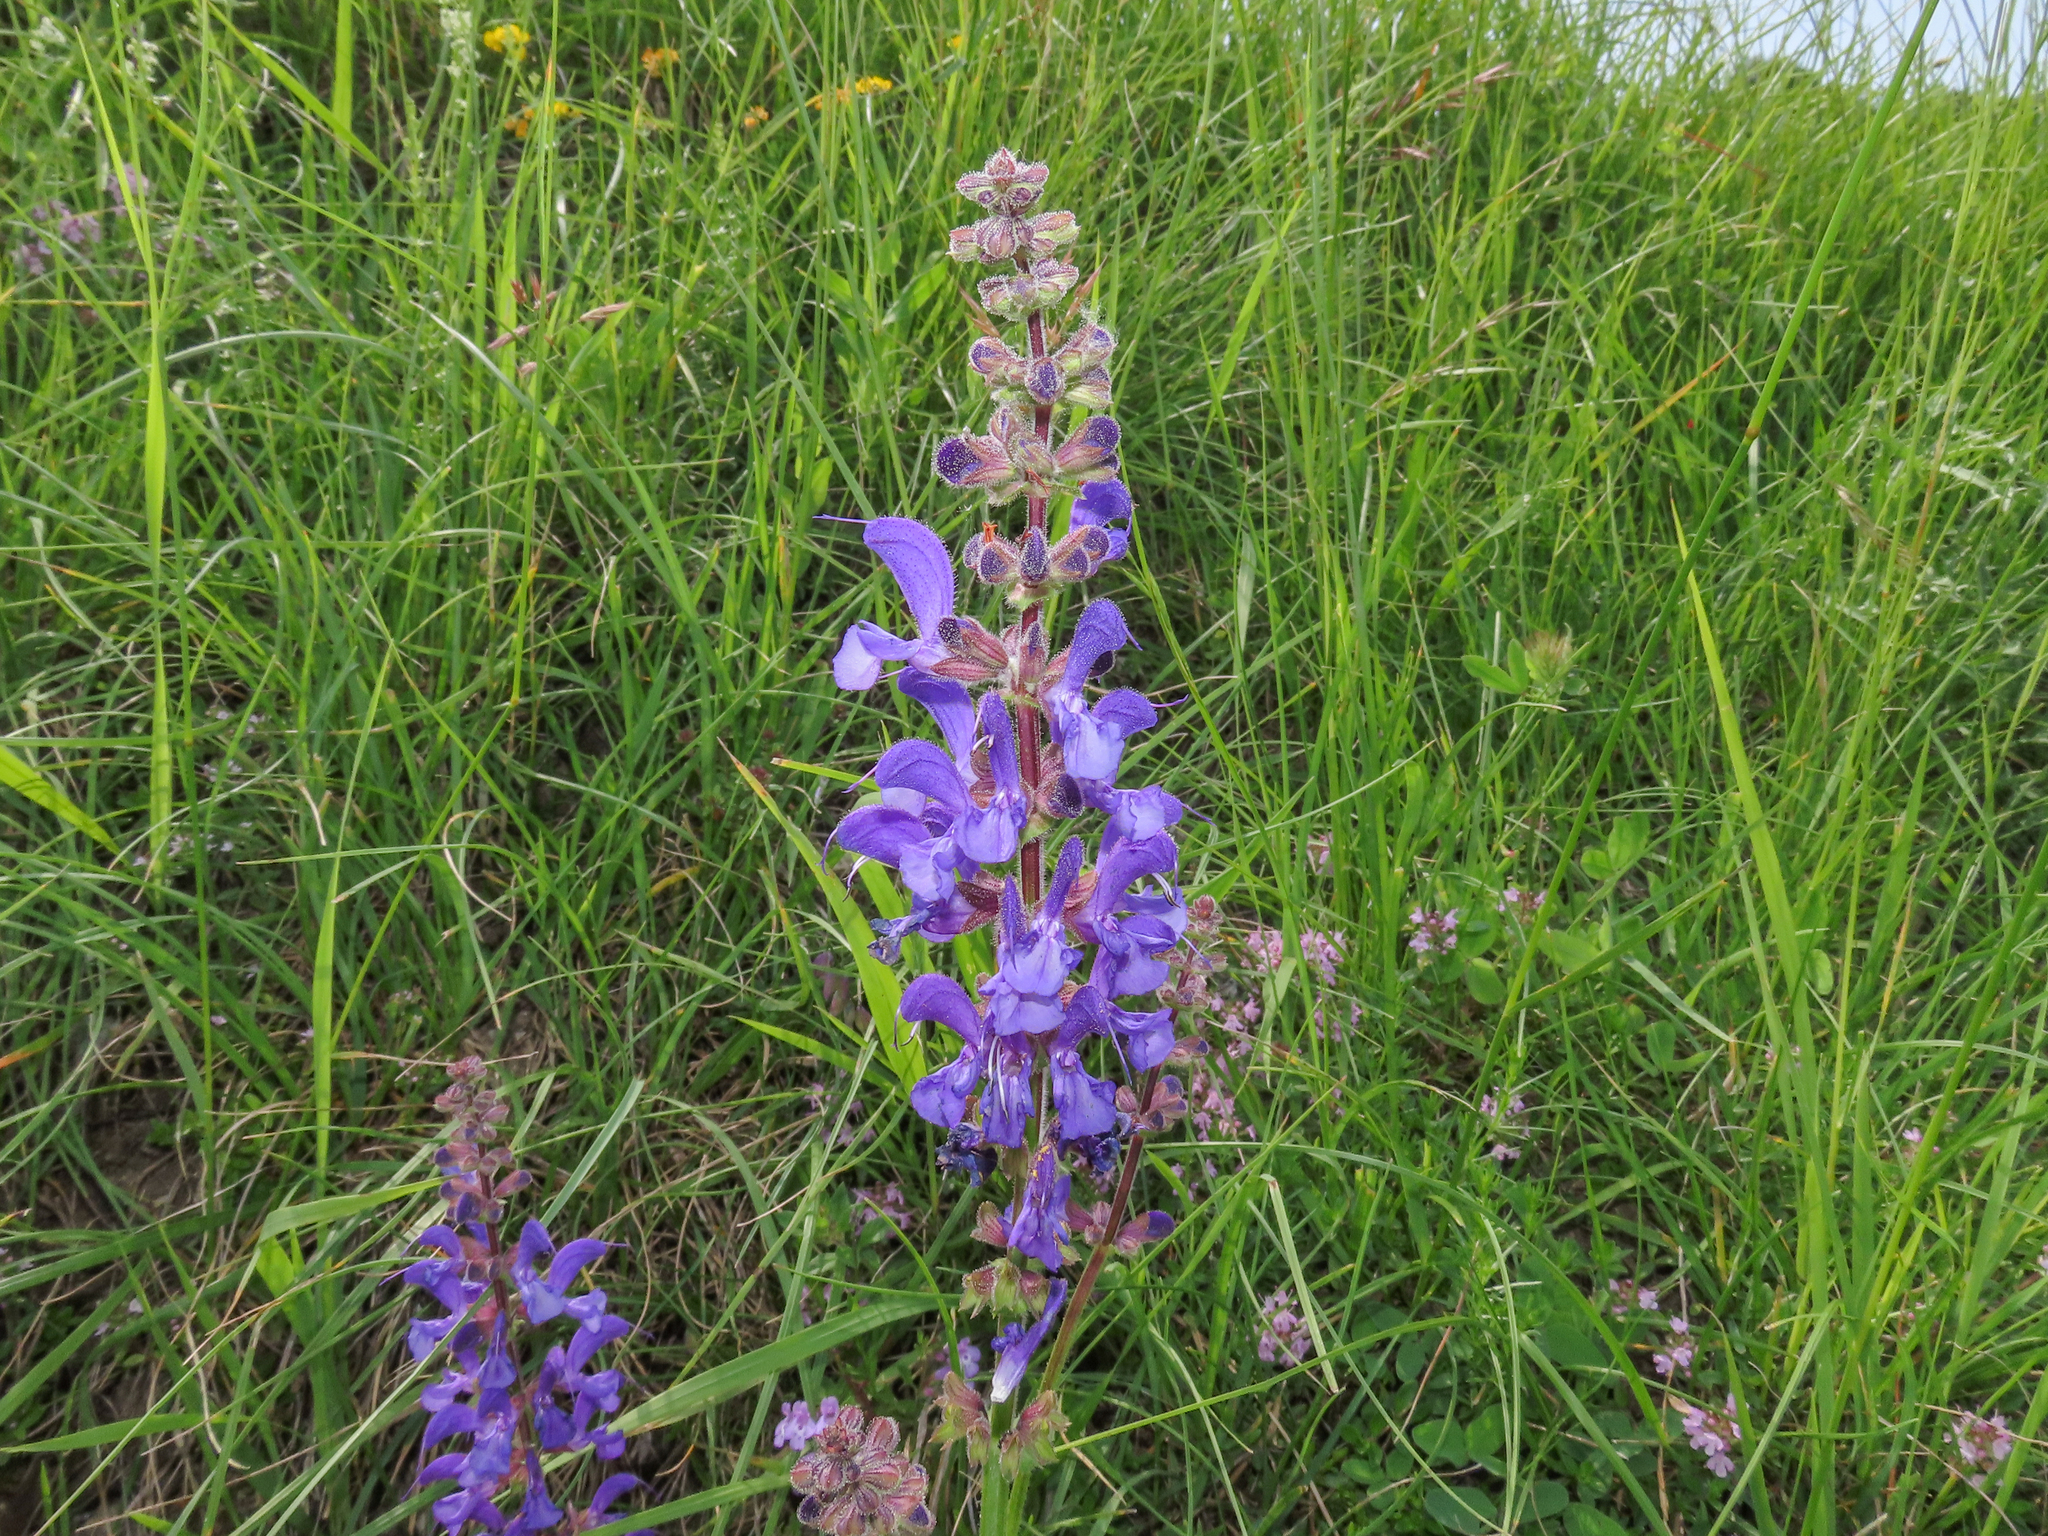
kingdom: Plantae
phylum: Tracheophyta
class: Magnoliopsida
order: Lamiales
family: Lamiaceae
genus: Salvia
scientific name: Salvia pratensis
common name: Meadow sage
